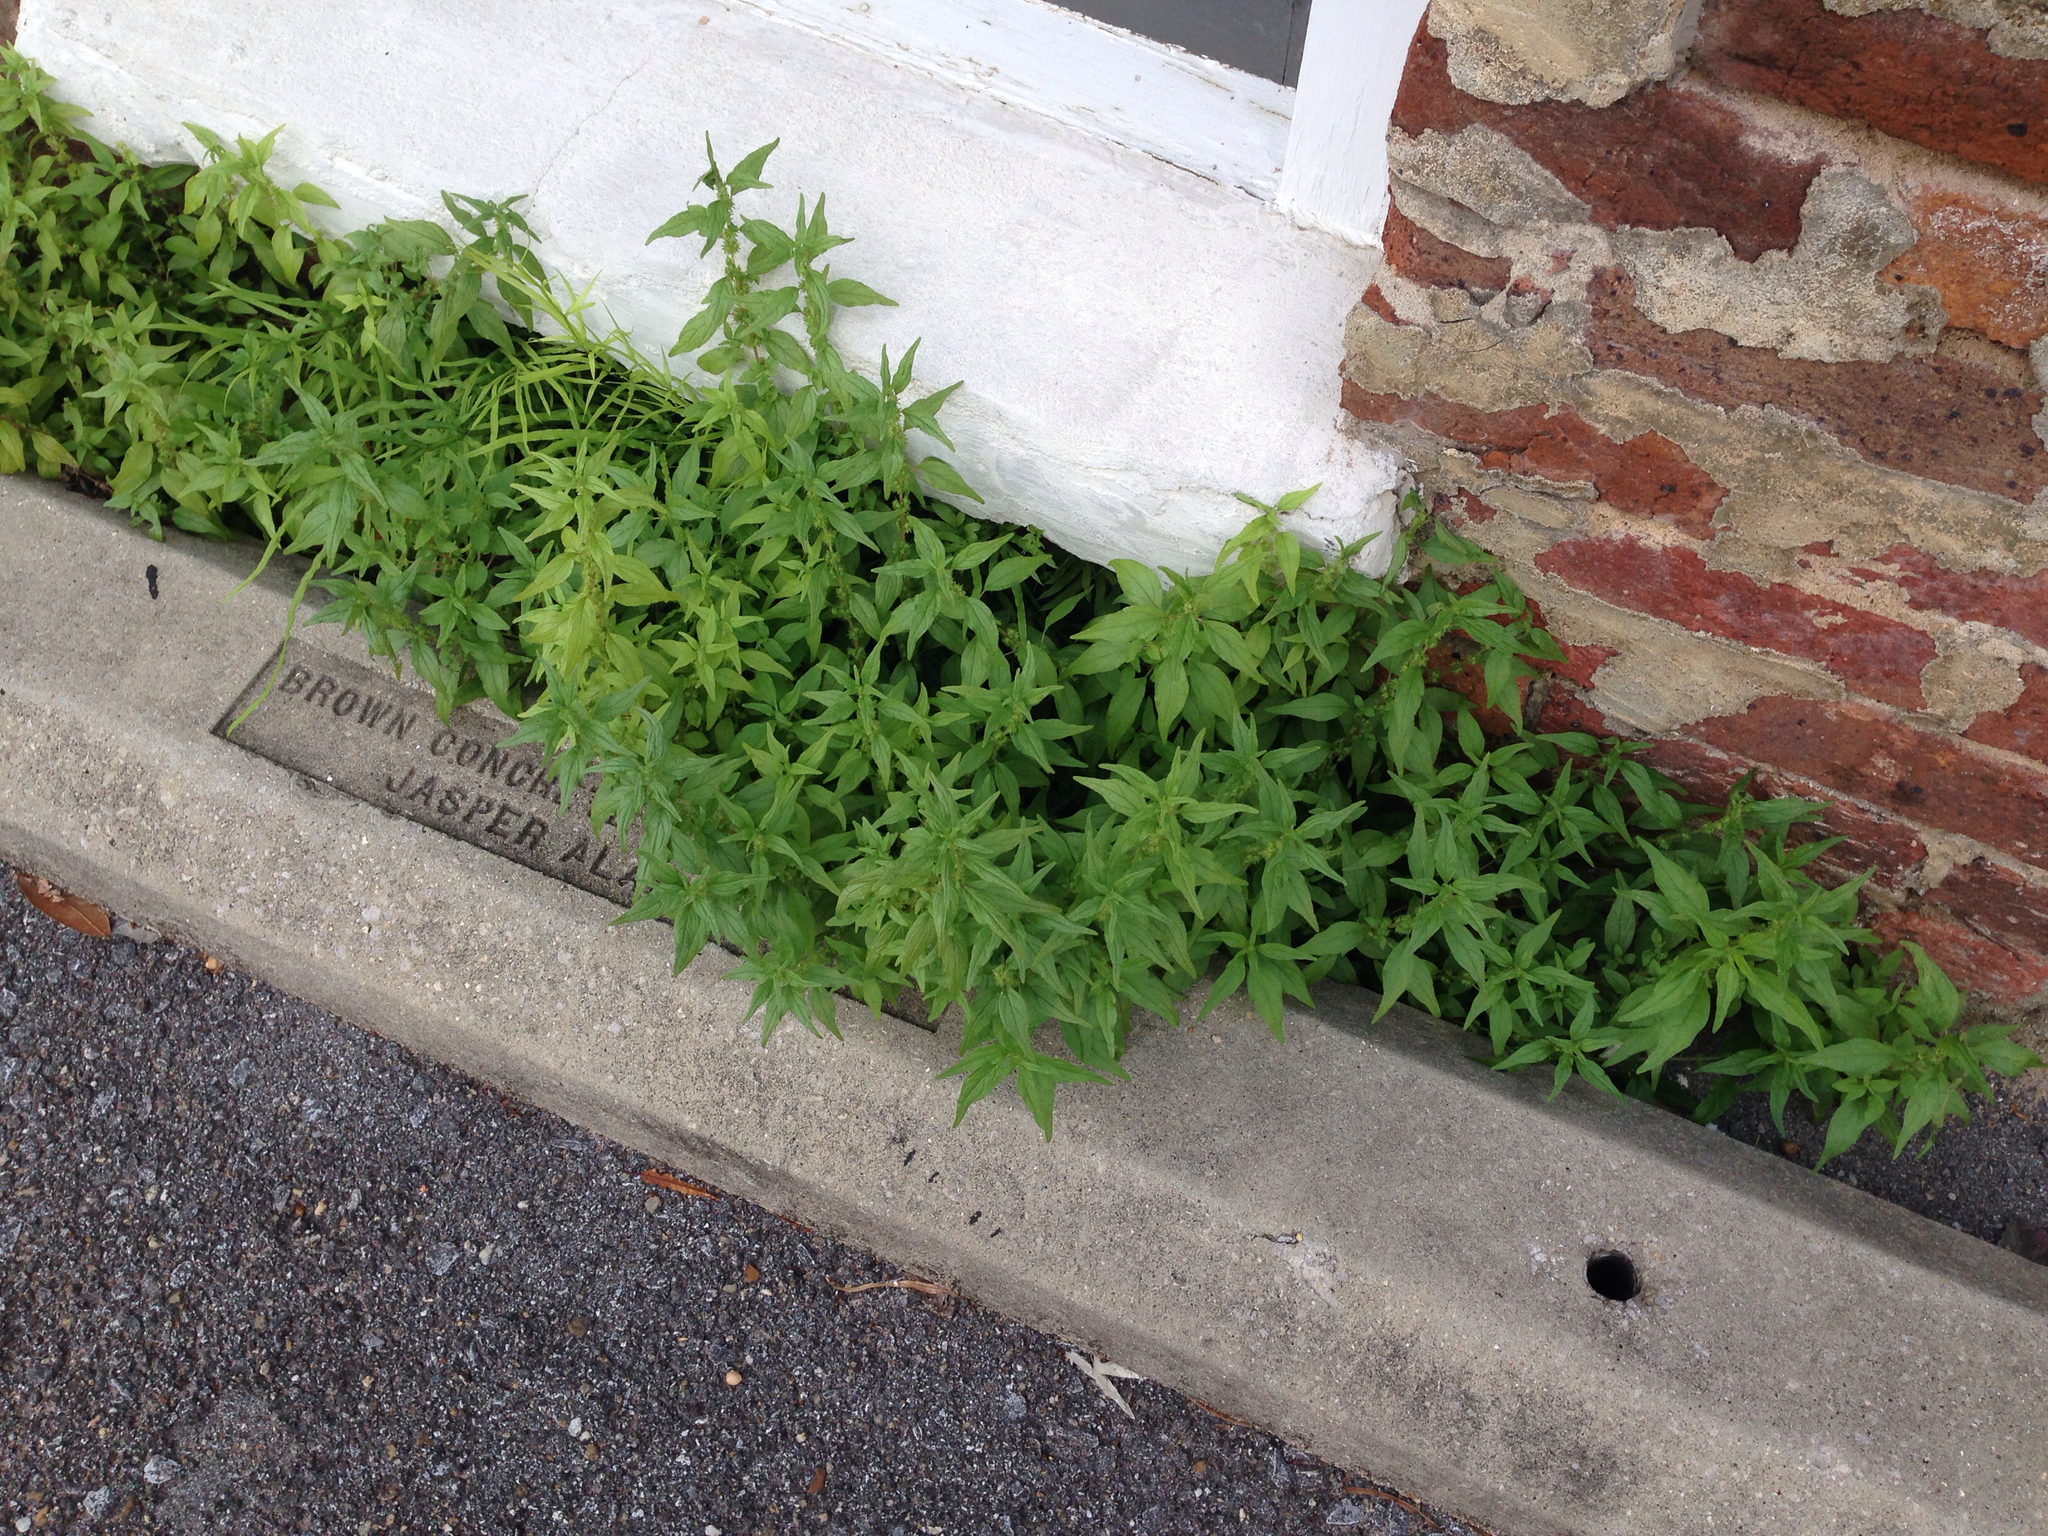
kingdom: Plantae
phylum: Tracheophyta
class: Magnoliopsida
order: Rosales
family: Urticaceae
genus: Parietaria
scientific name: Parietaria pensylvanica
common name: Pennsylvania pellitory
